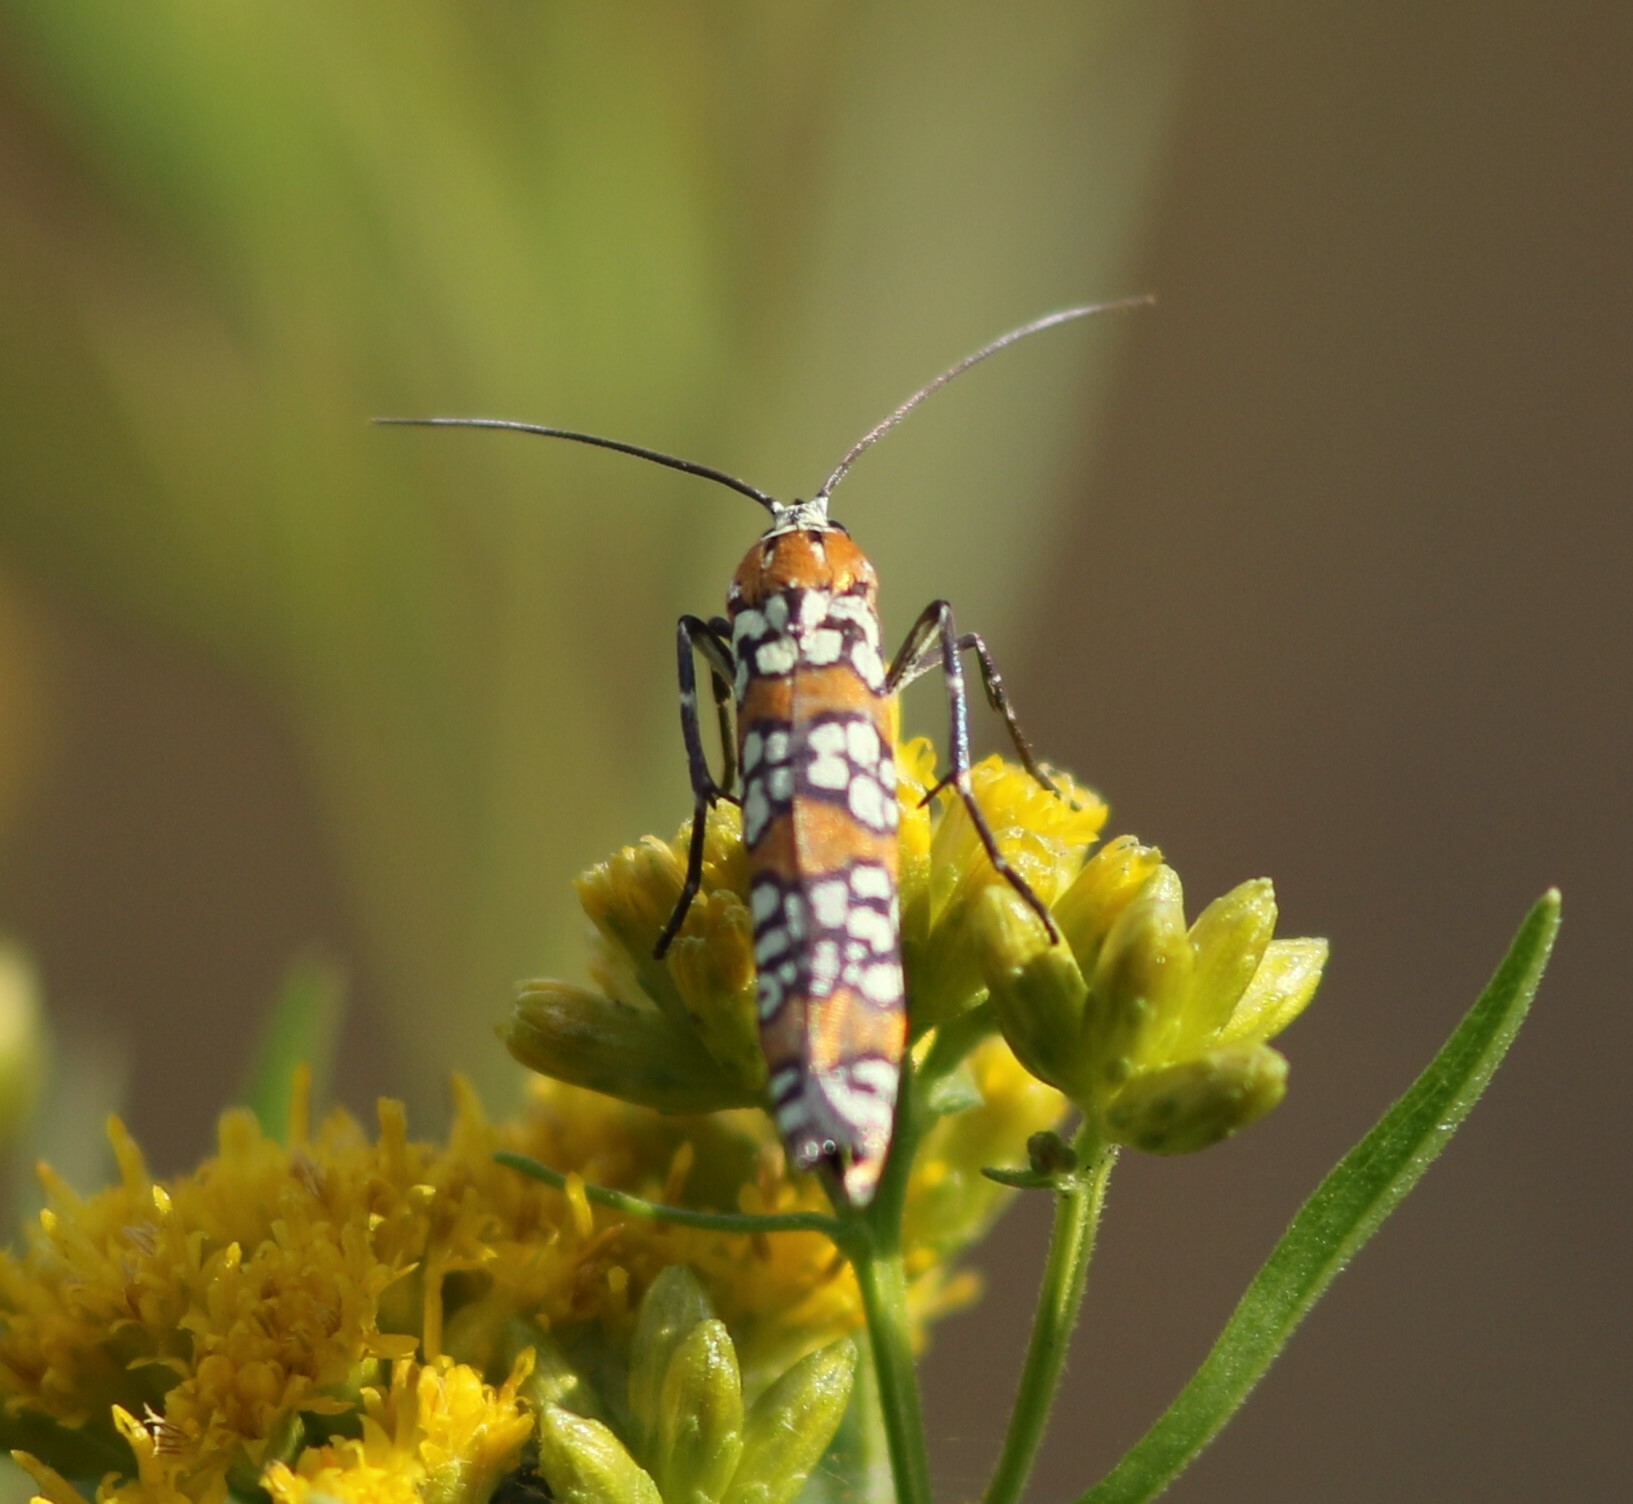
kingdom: Animalia
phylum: Arthropoda
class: Insecta
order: Lepidoptera
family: Attevidae
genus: Atteva
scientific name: Atteva punctella
